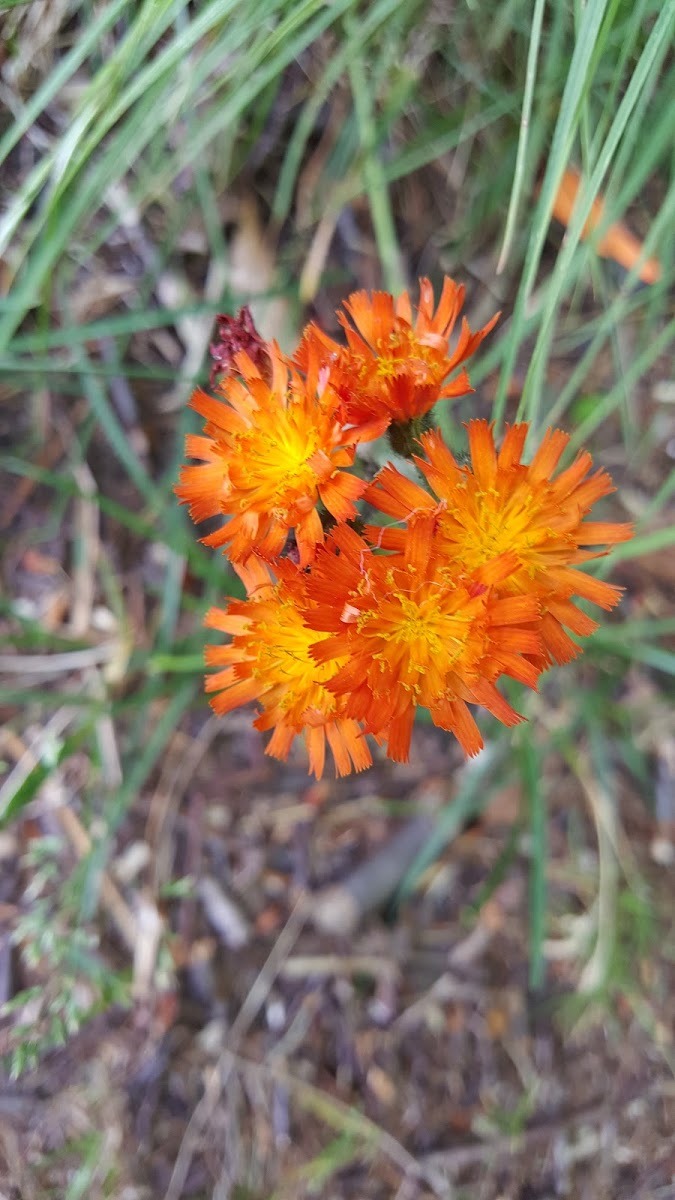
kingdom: Plantae
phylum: Tracheophyta
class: Magnoliopsida
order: Asterales
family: Asteraceae
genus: Pilosella
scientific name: Pilosella aurantiaca
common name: Fox-and-cubs
